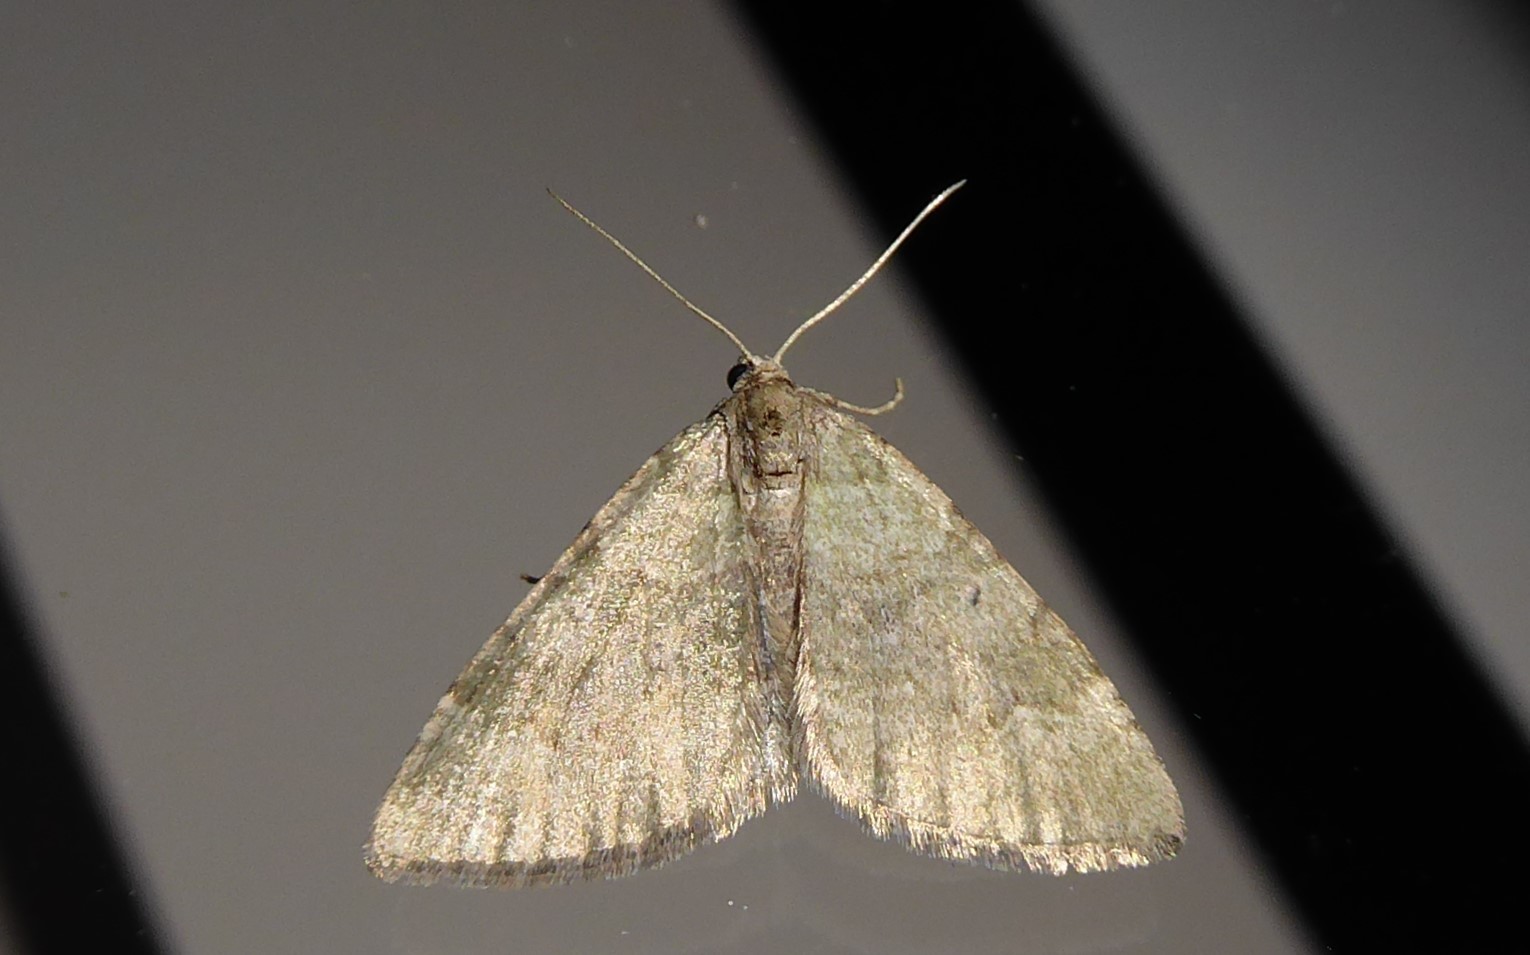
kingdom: Animalia
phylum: Arthropoda
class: Insecta
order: Lepidoptera
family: Geometridae
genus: Epyaxa
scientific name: Epyaxa rosearia
